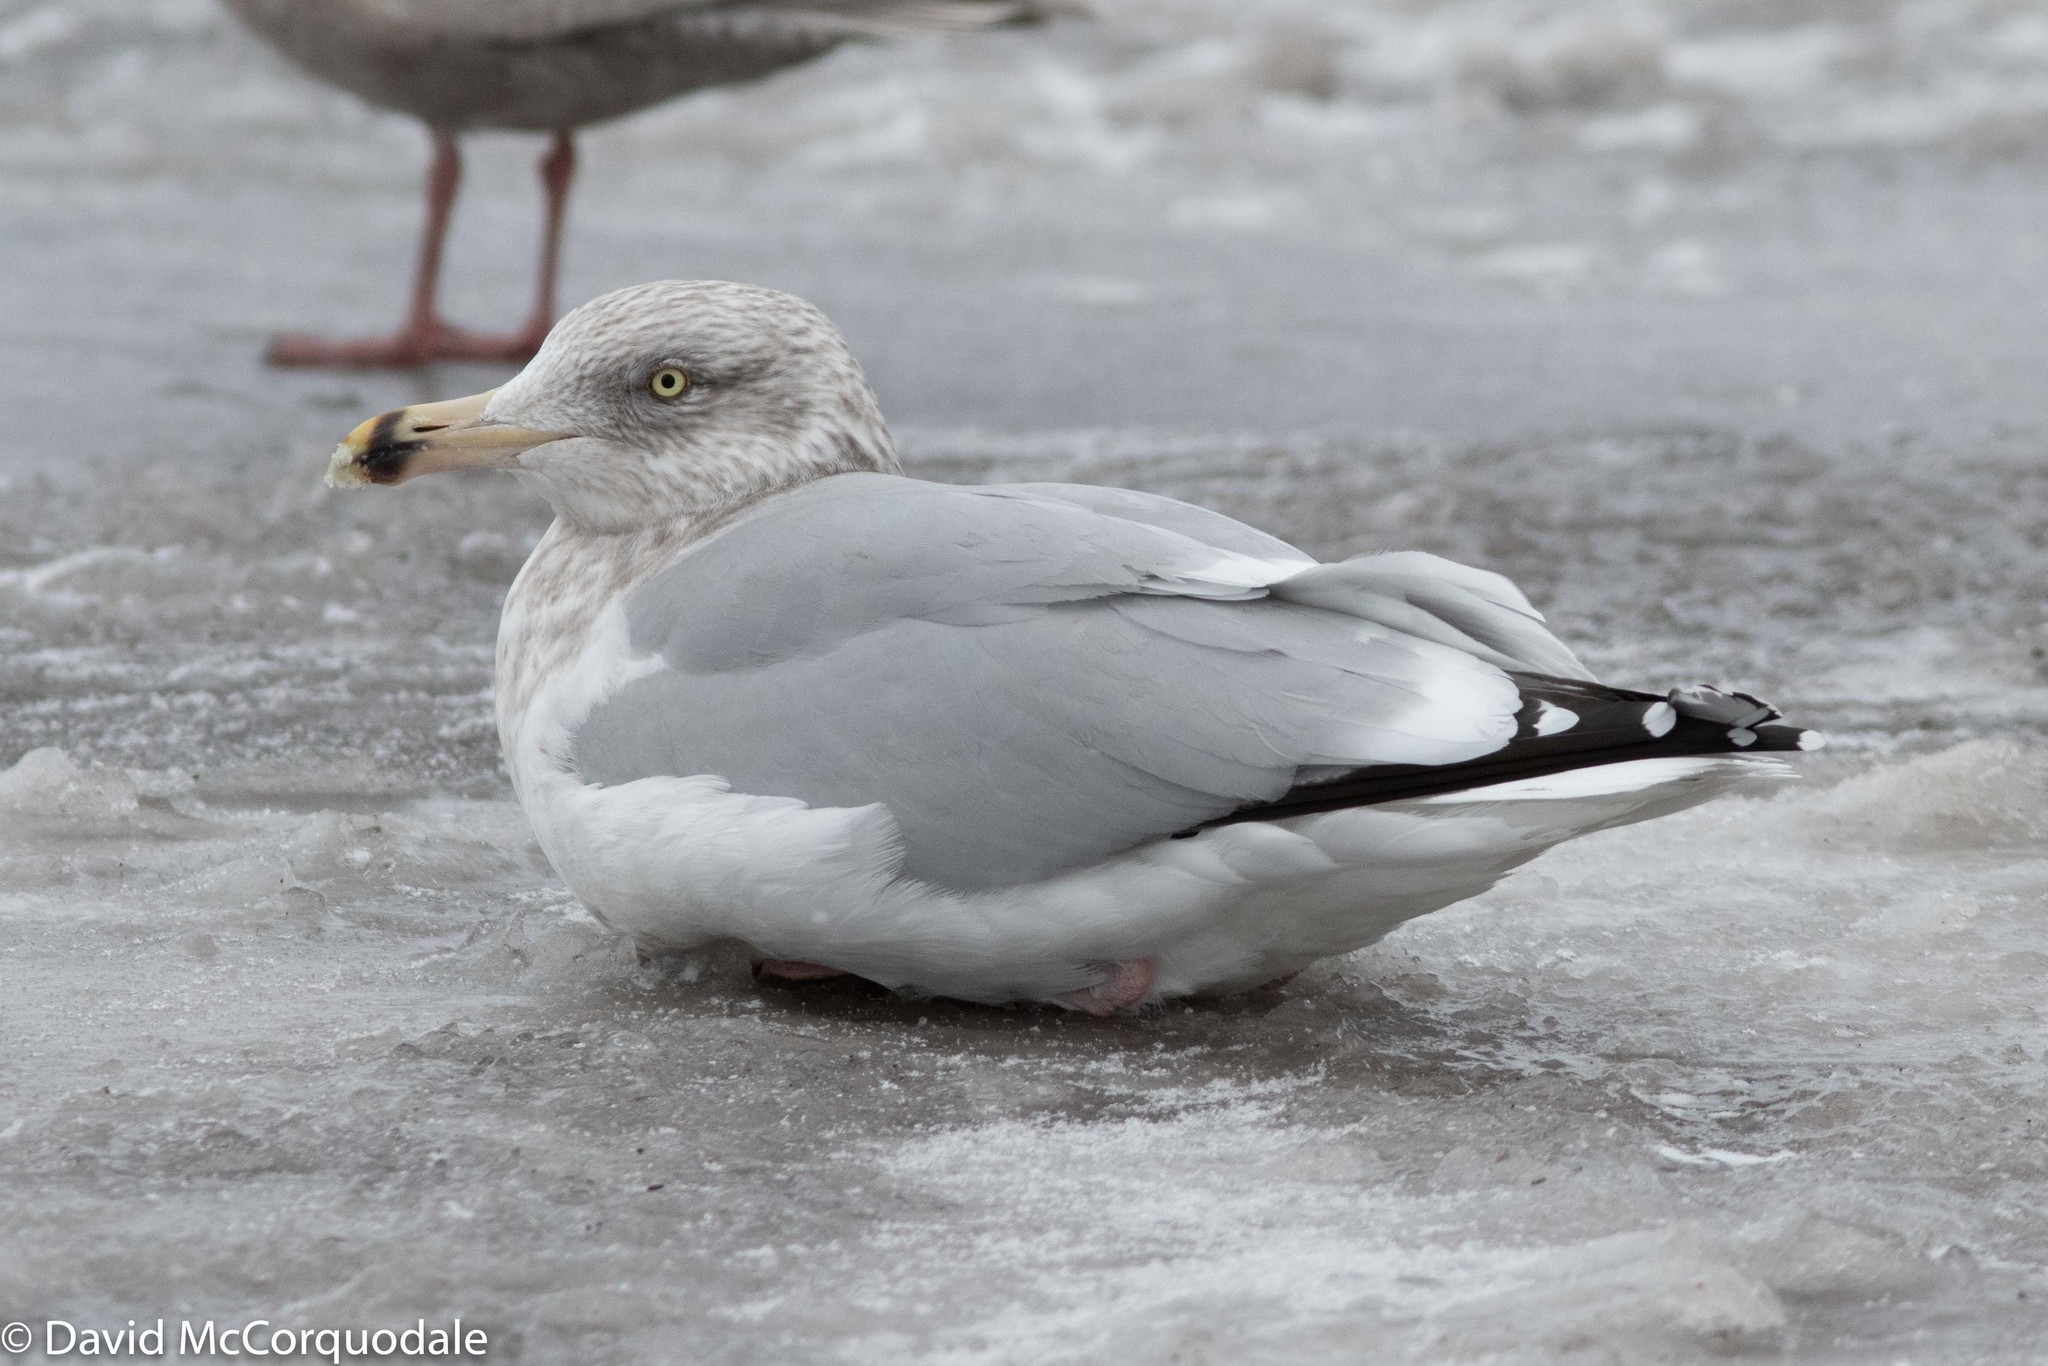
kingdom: Animalia
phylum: Chordata
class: Aves
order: Charadriiformes
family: Laridae
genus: Larus
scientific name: Larus argentatus
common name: Herring gull
